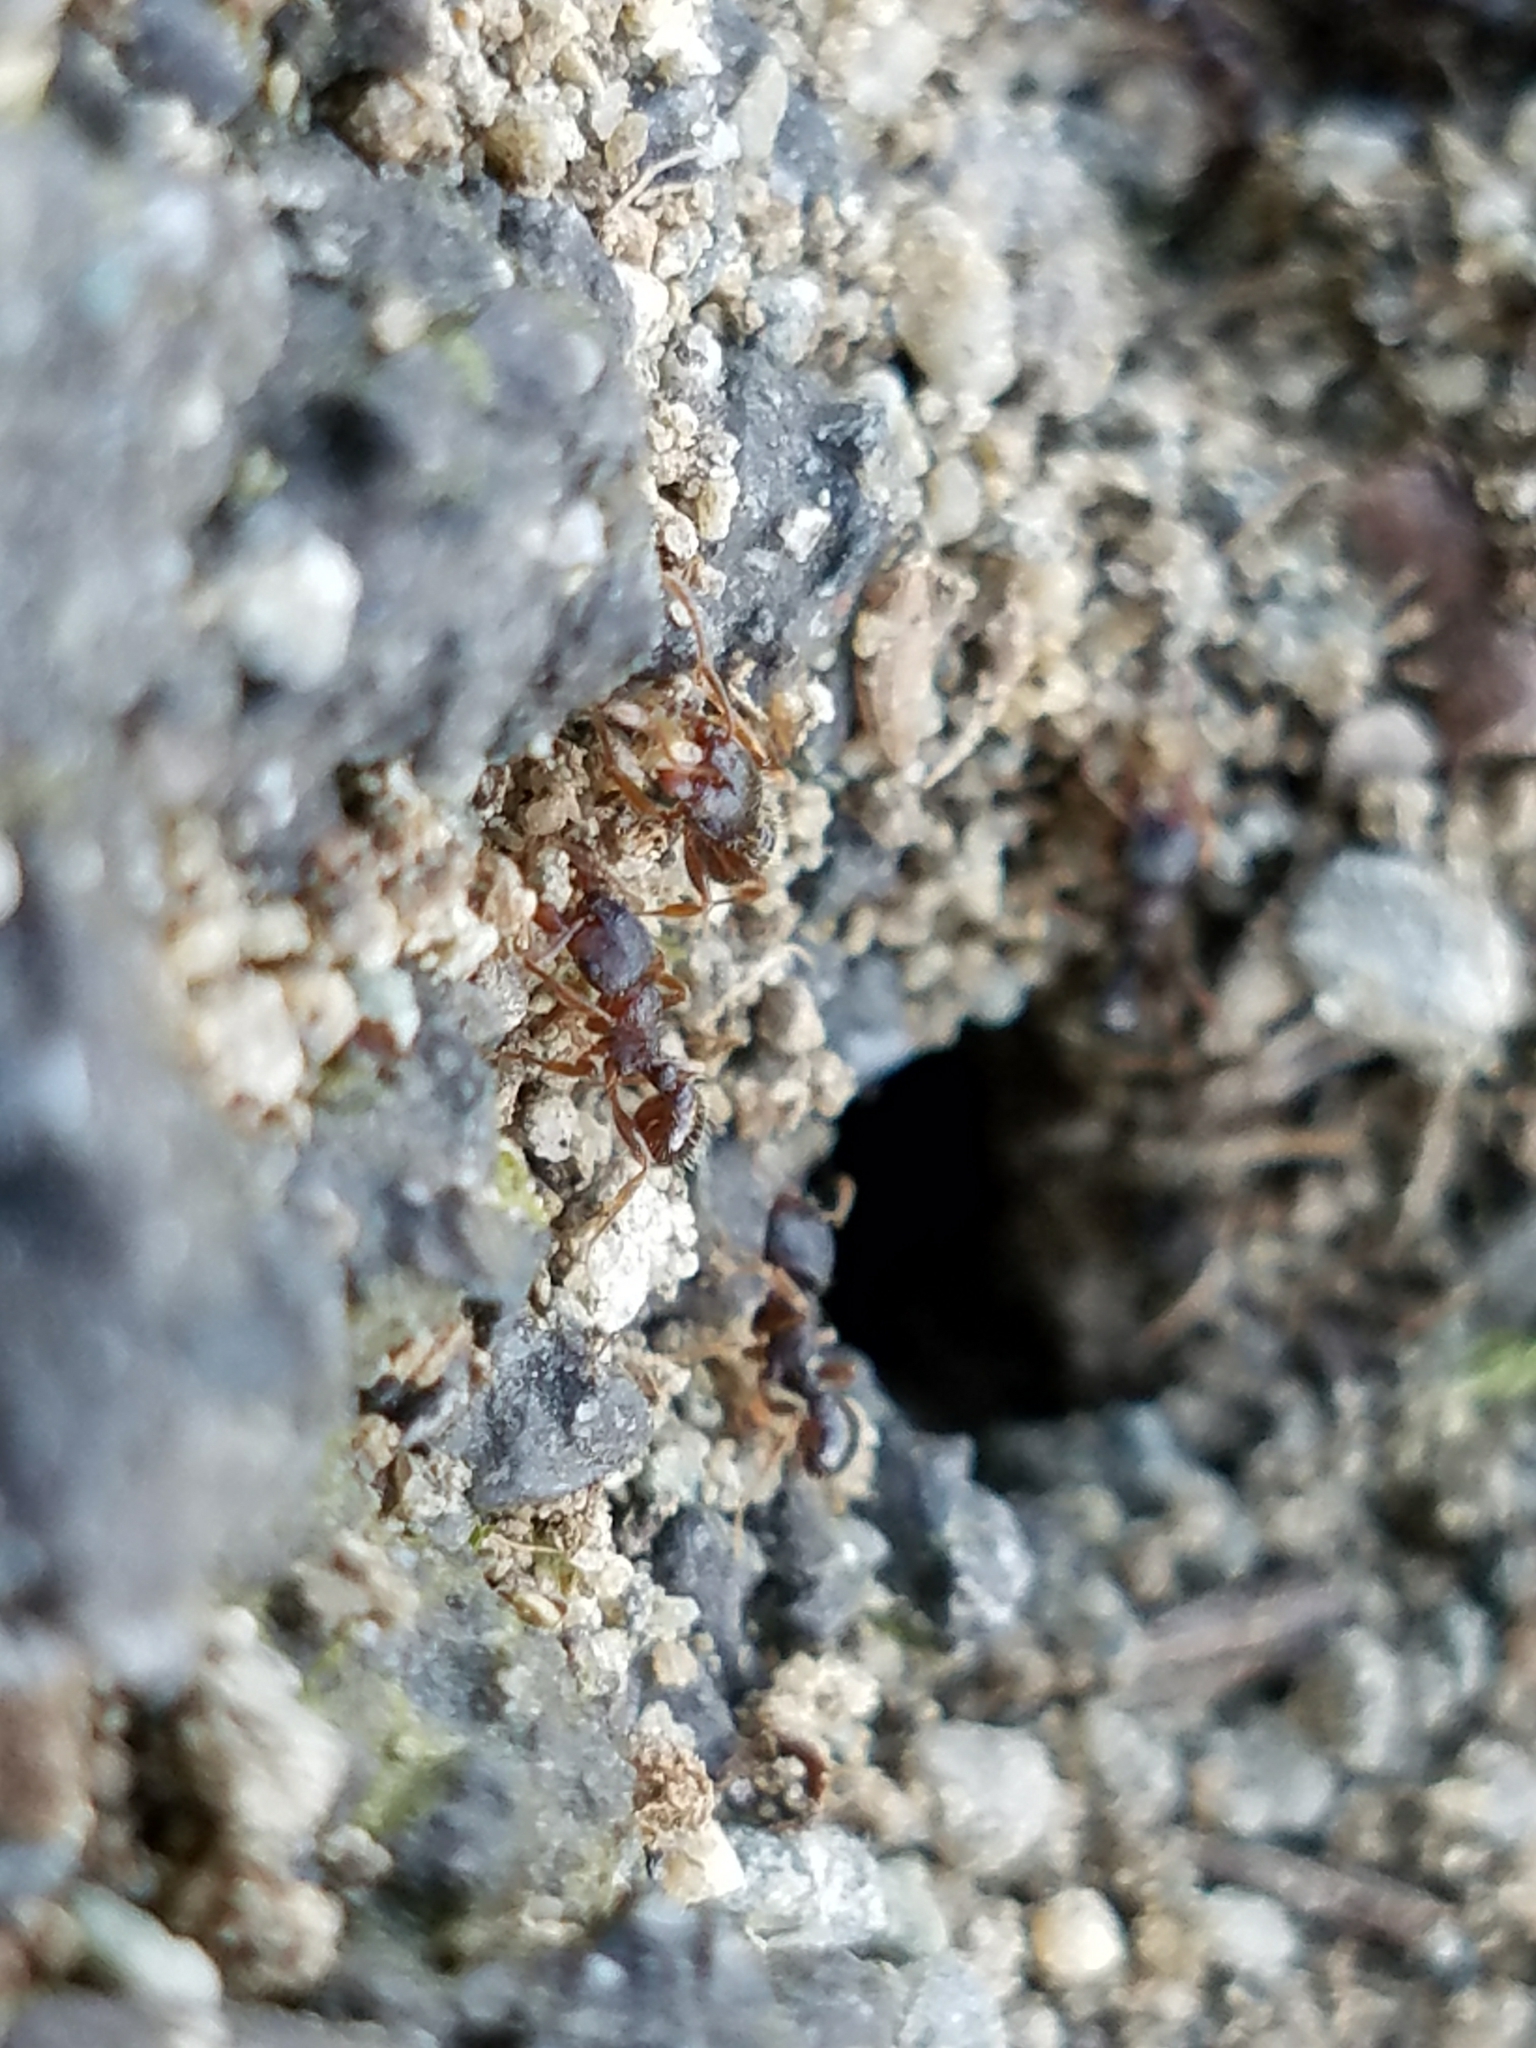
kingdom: Animalia
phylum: Arthropoda
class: Insecta
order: Hymenoptera
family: Formicidae
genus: Tetramorium
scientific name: Tetramorium immigrans
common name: Pavement ant
